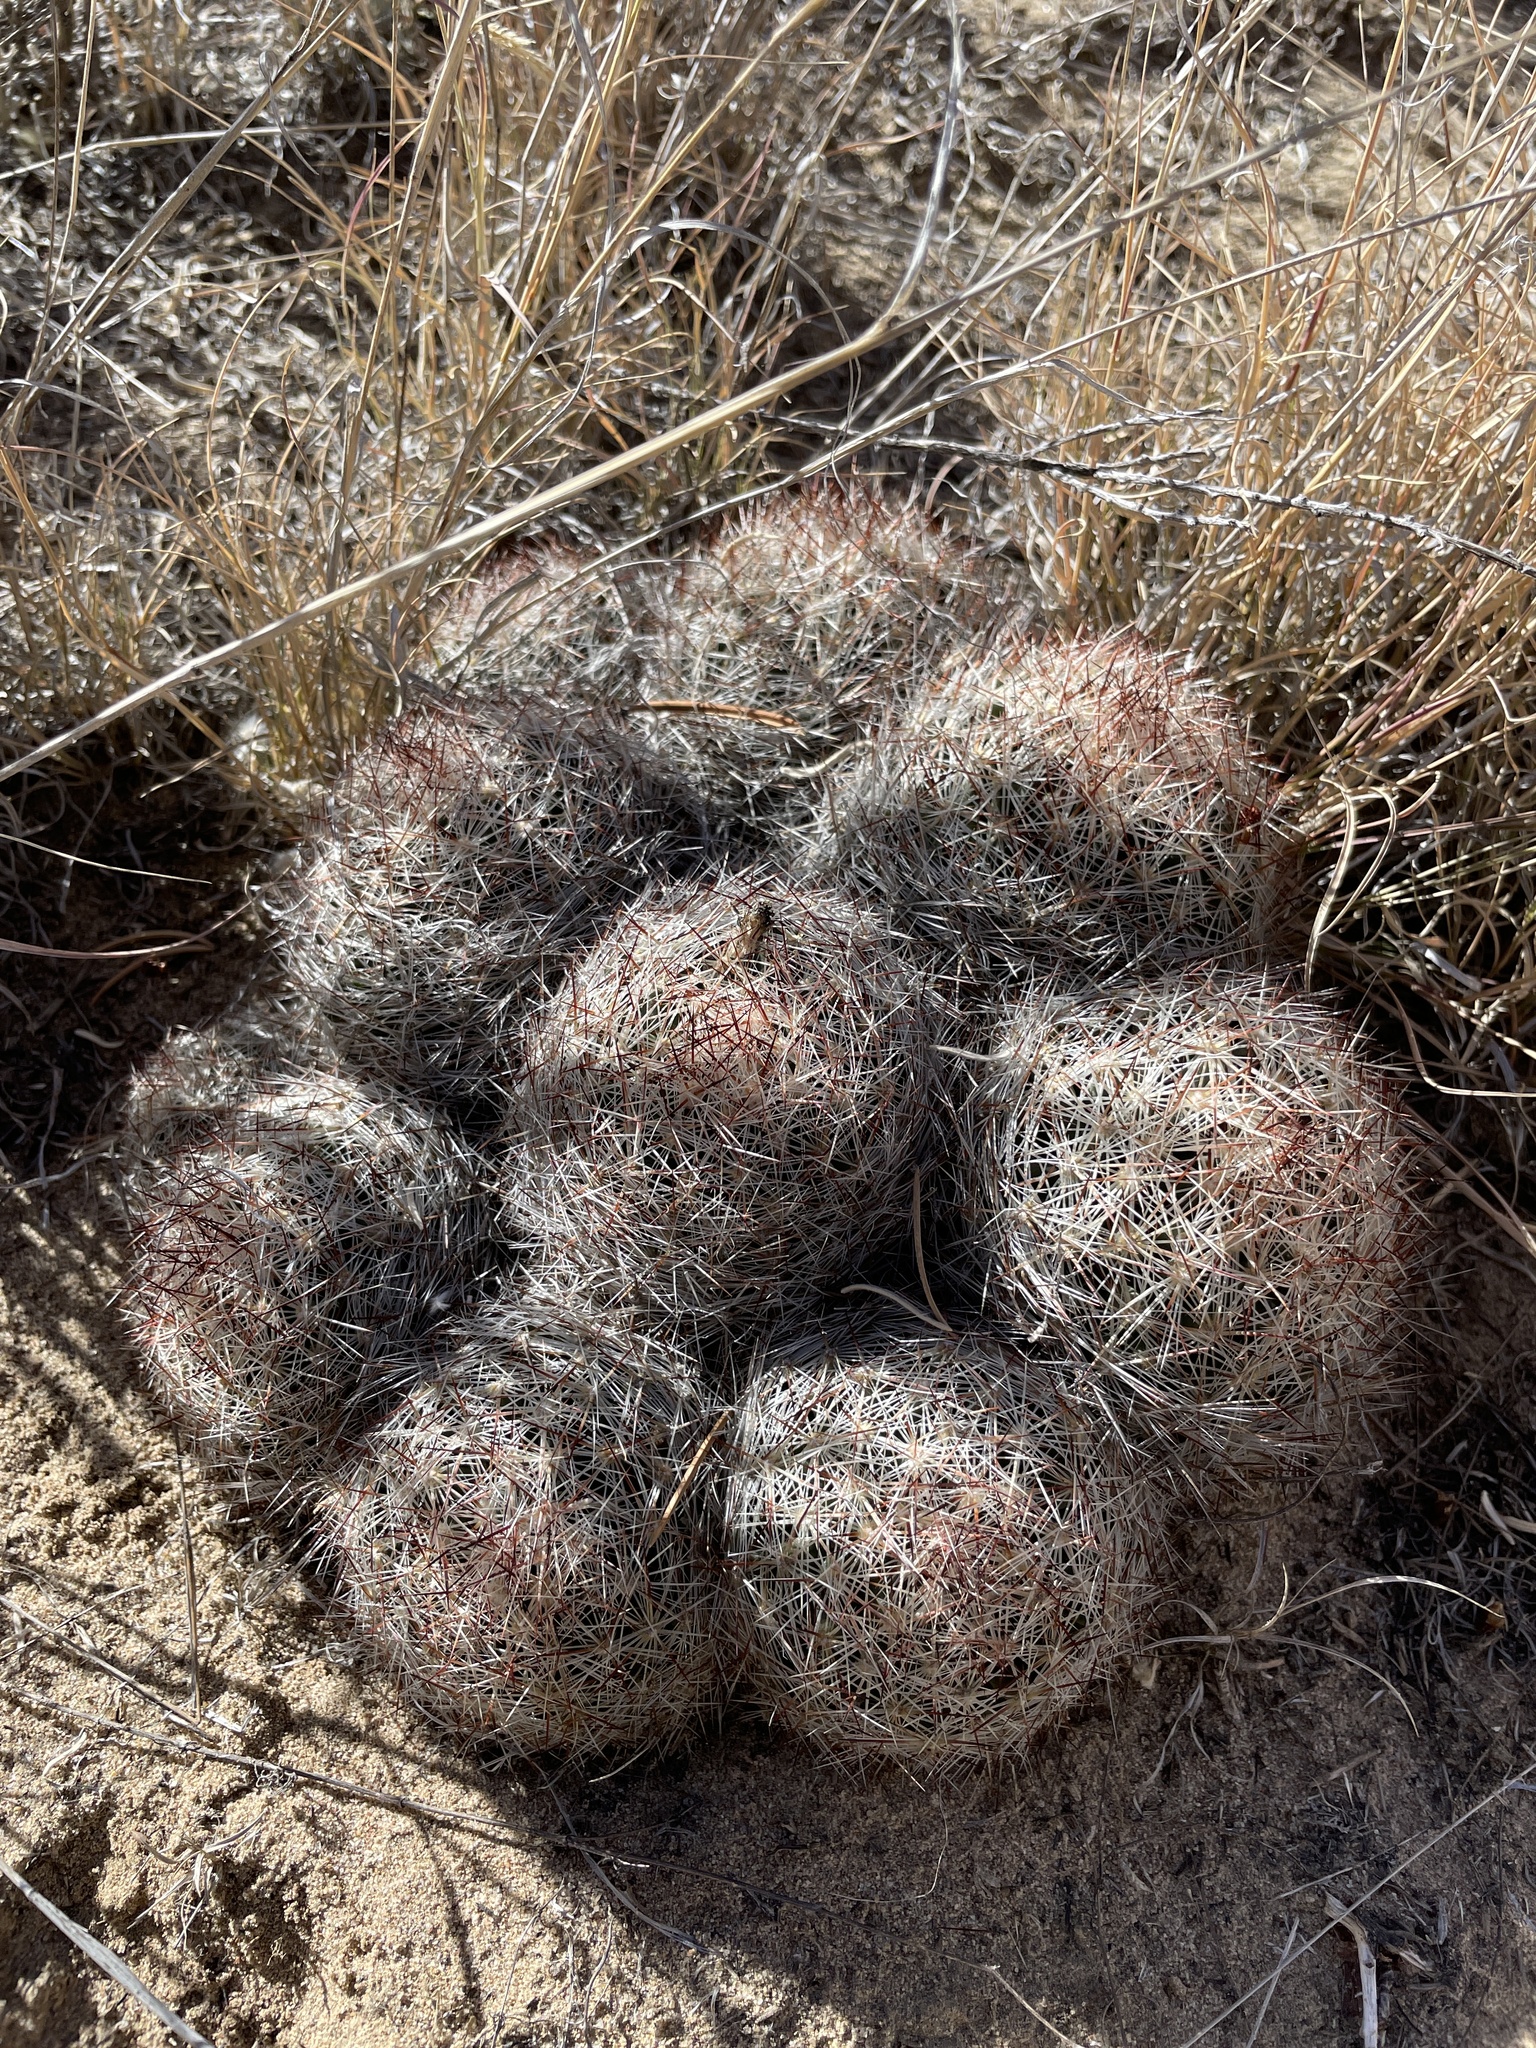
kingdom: Plantae
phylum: Tracheophyta
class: Magnoliopsida
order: Caryophyllales
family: Cactaceae
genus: Pelecyphora
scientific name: Pelecyphora vivipara
